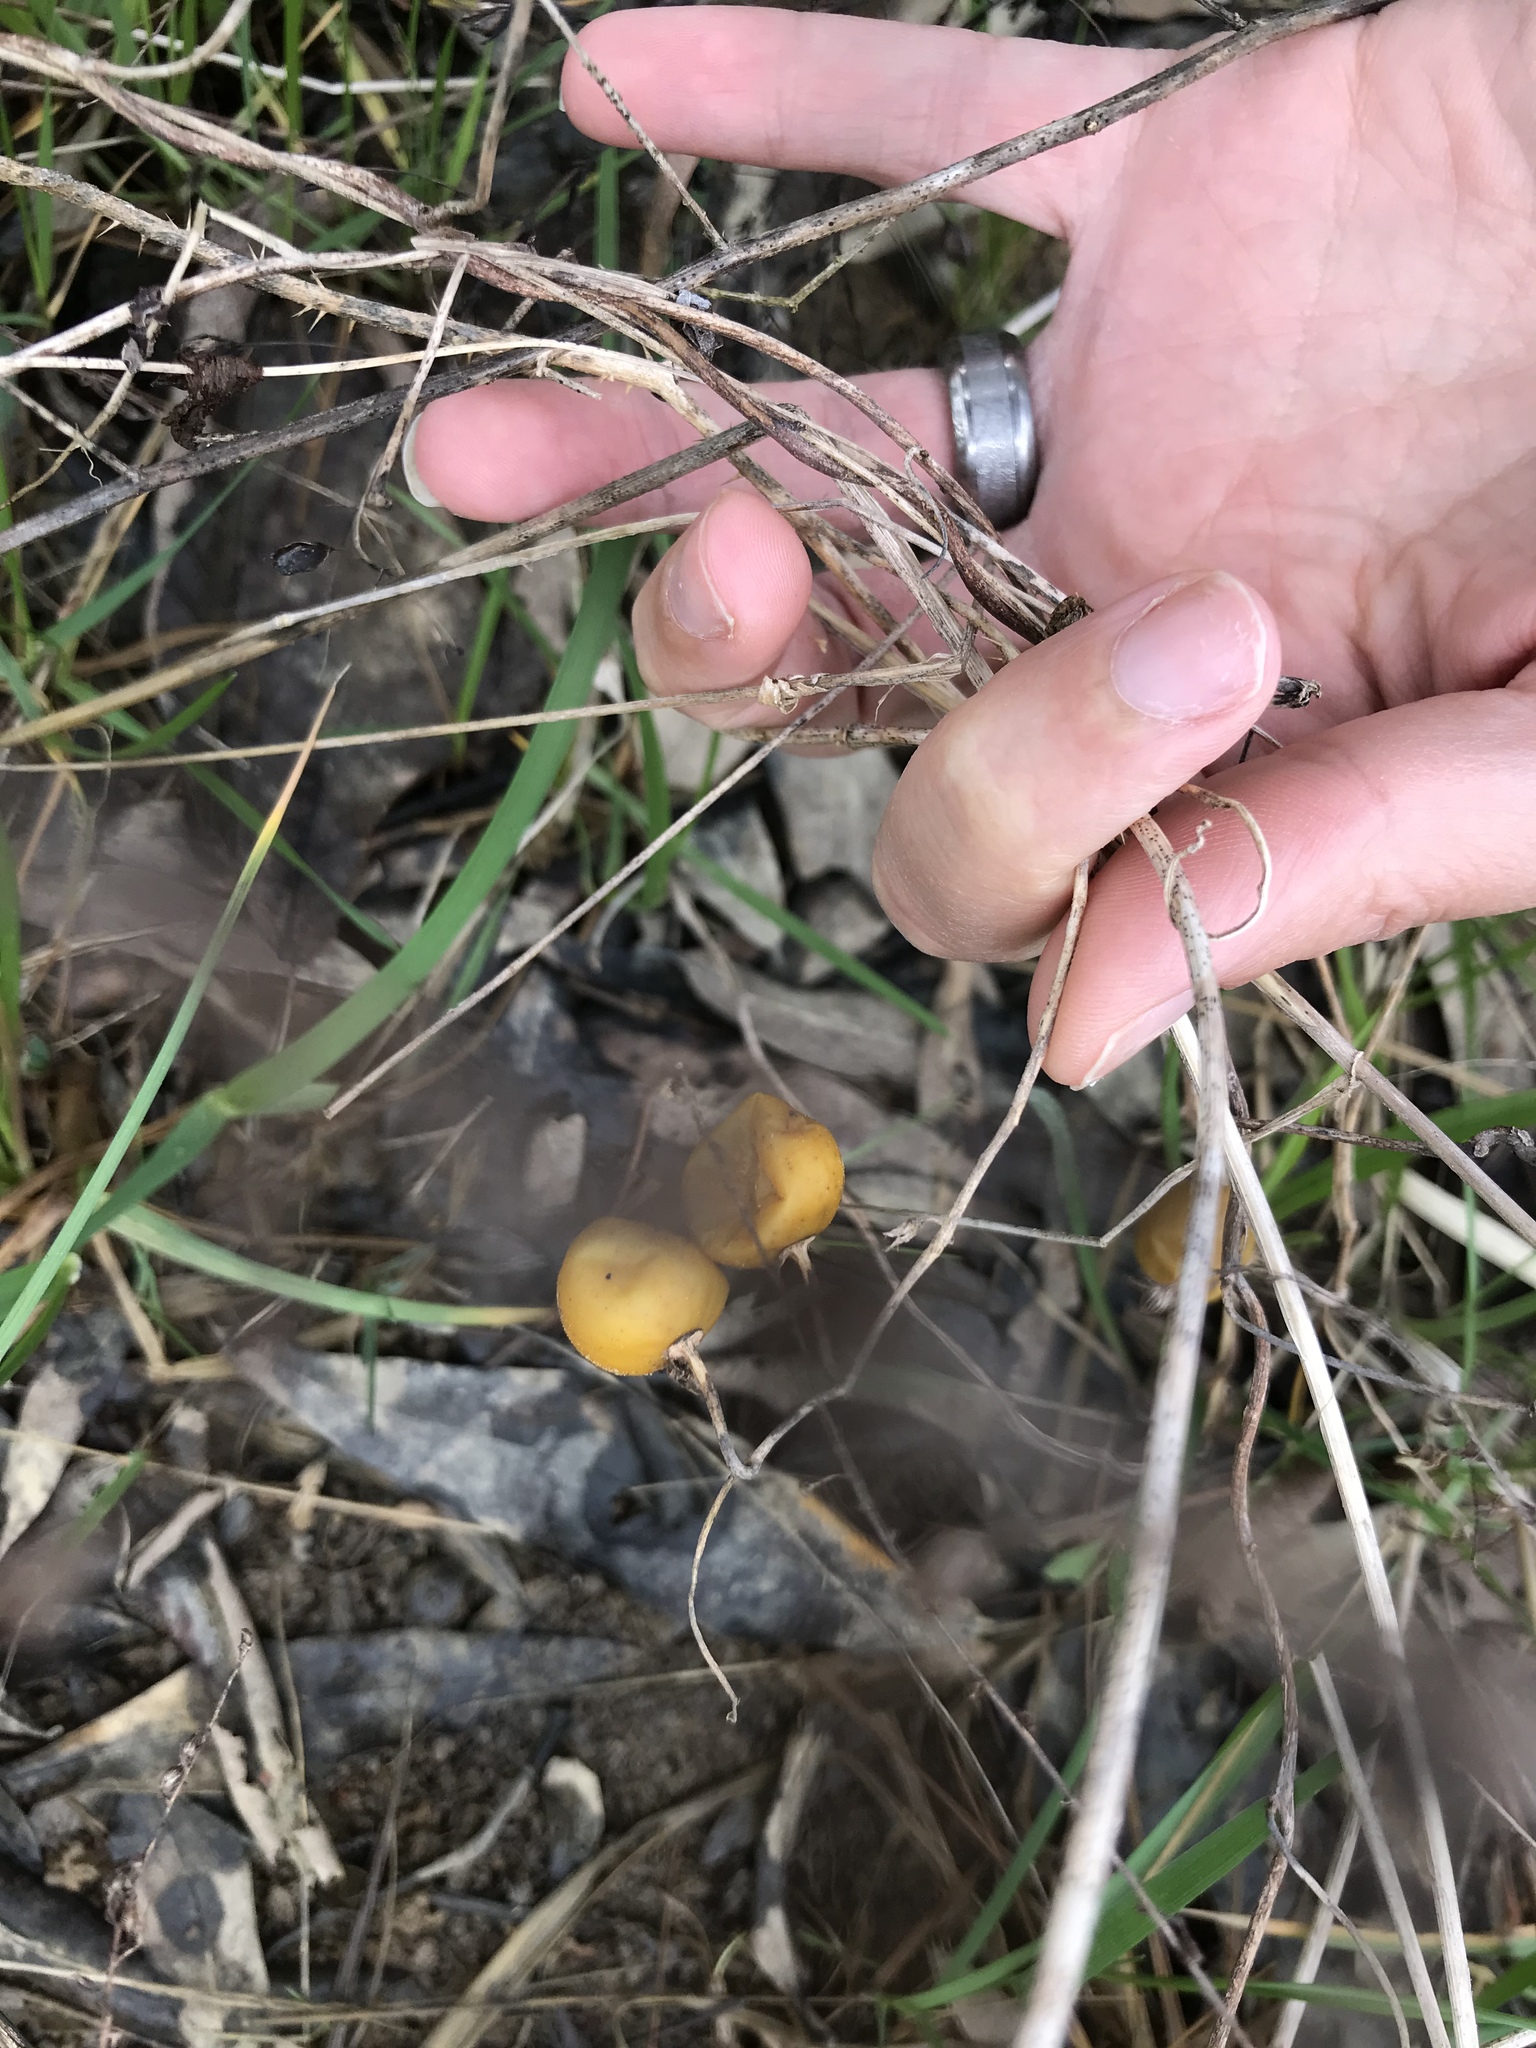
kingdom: Plantae
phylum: Tracheophyta
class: Magnoliopsida
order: Solanales
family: Solanaceae
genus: Solanum
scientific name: Solanum carolinense
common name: Horse-nettle
